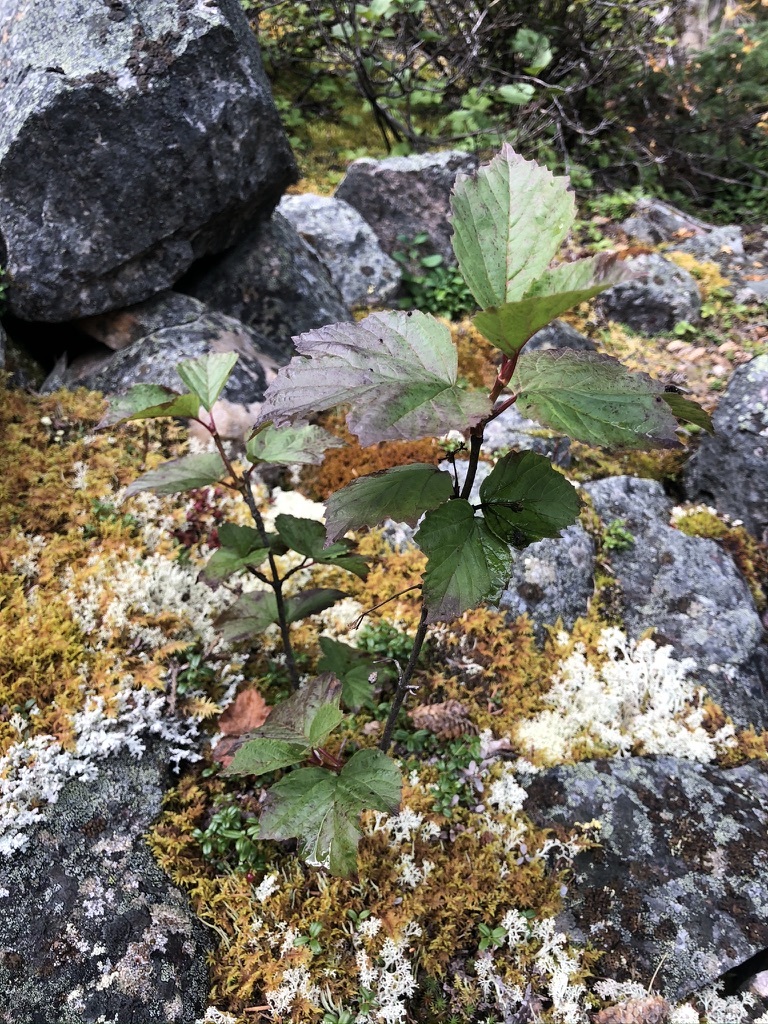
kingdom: Plantae
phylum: Tracheophyta
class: Magnoliopsida
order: Dipsacales
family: Viburnaceae
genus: Viburnum
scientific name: Viburnum edule
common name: Mooseberry
